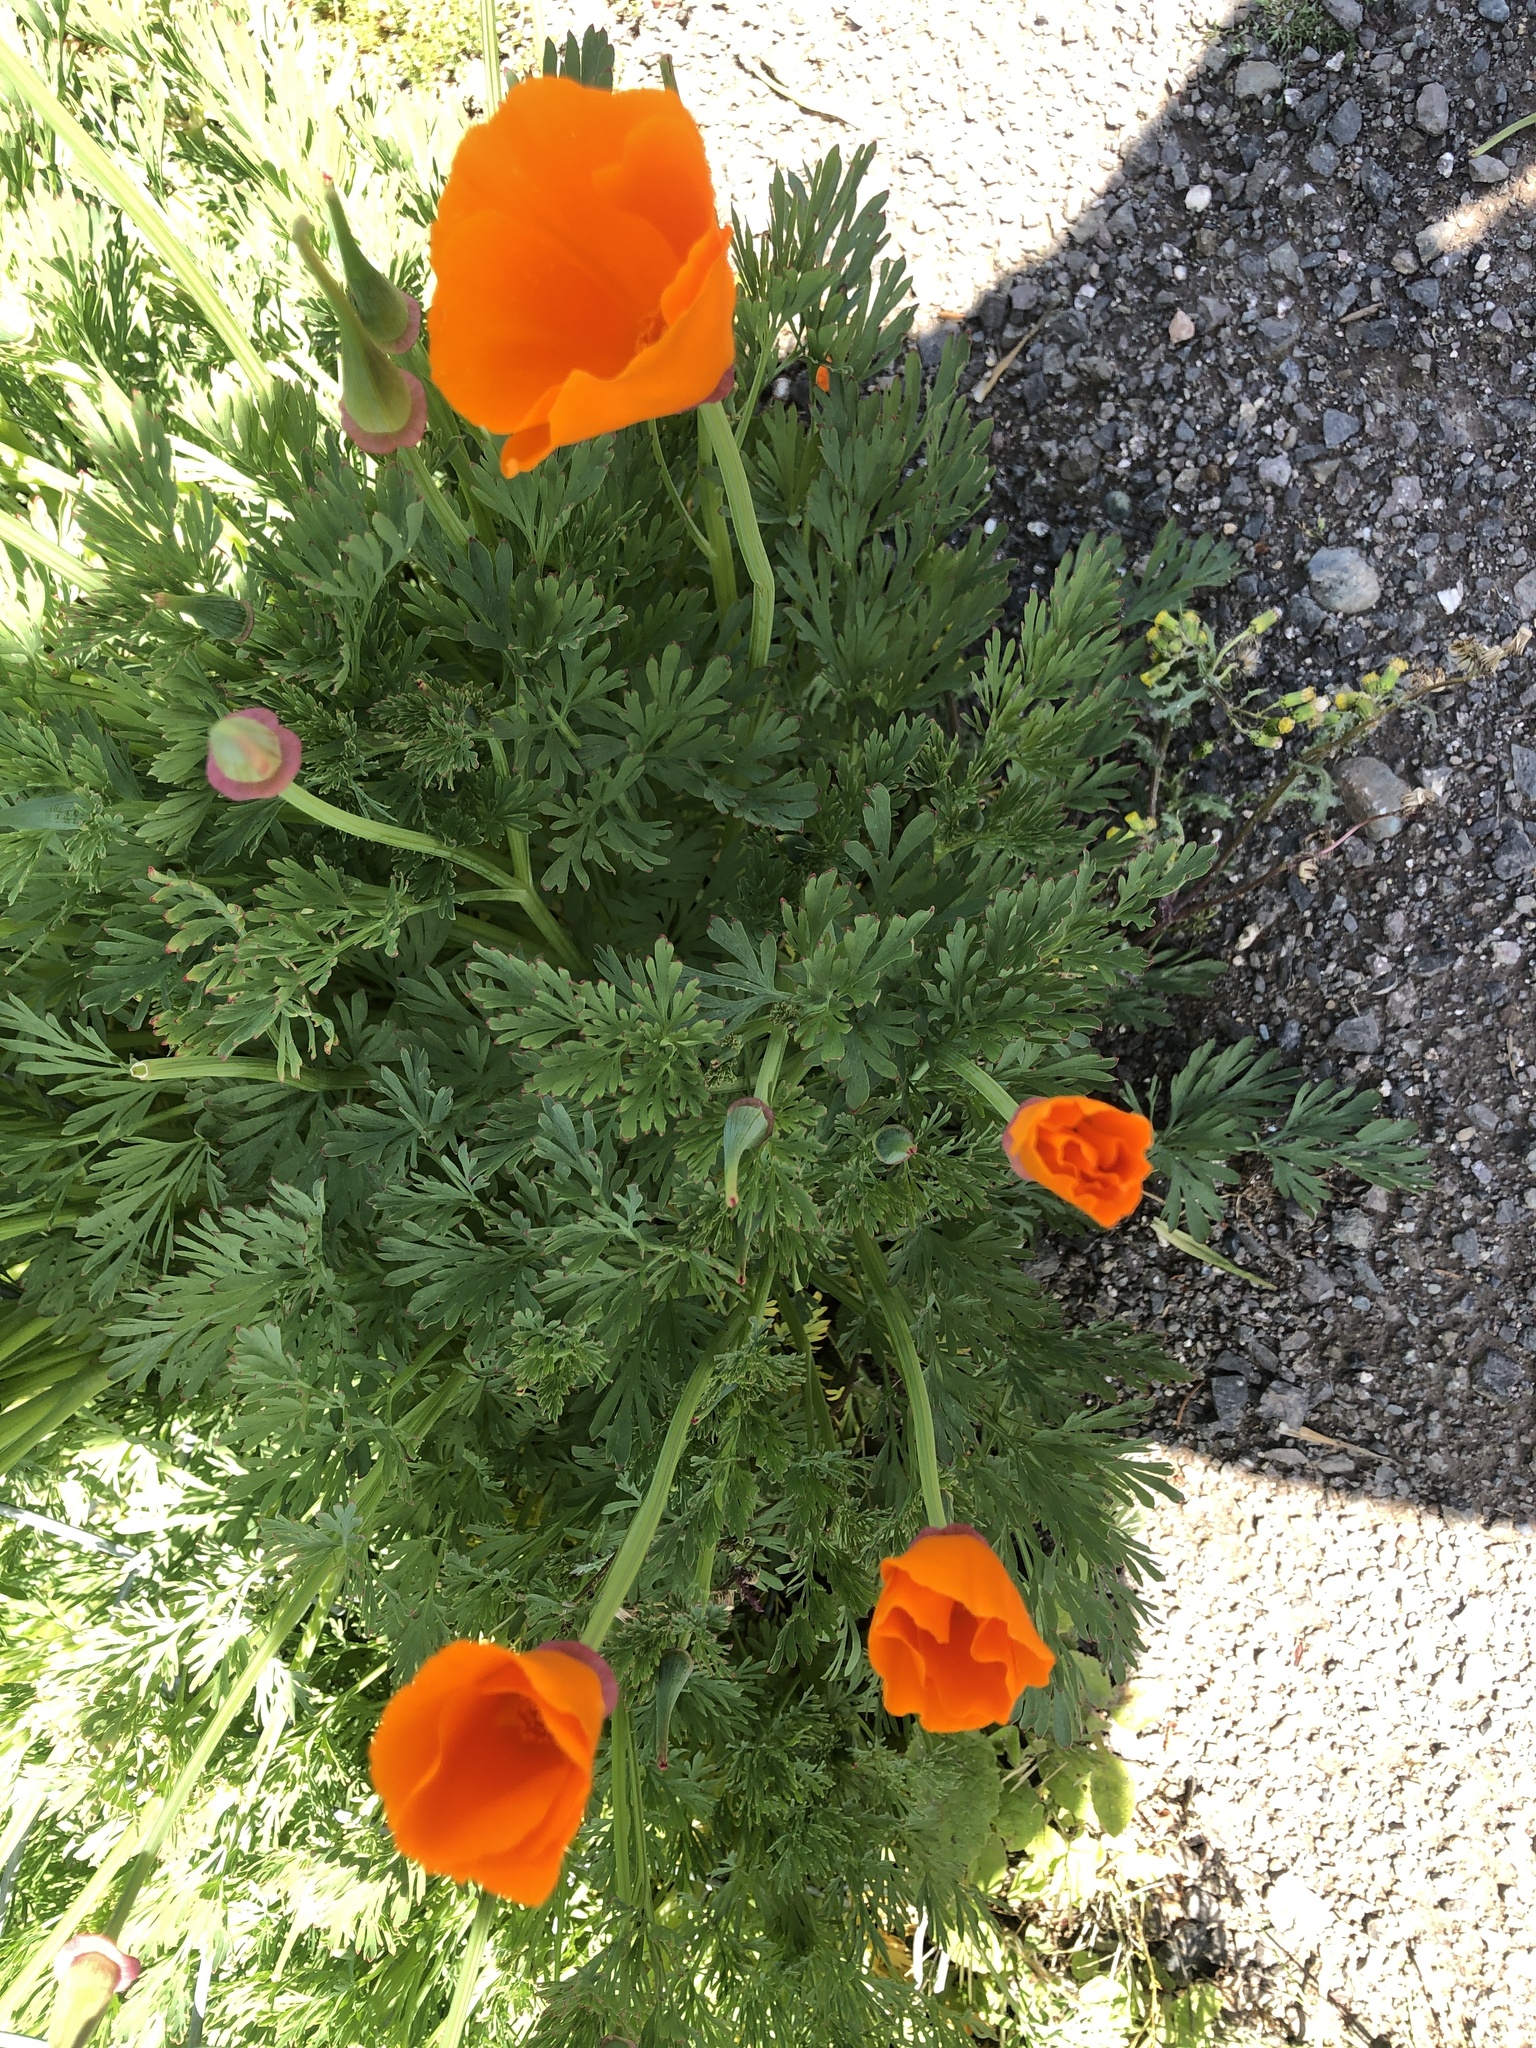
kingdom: Plantae
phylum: Tracheophyta
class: Magnoliopsida
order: Ranunculales
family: Papaveraceae
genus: Eschscholzia
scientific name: Eschscholzia californica
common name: California poppy
